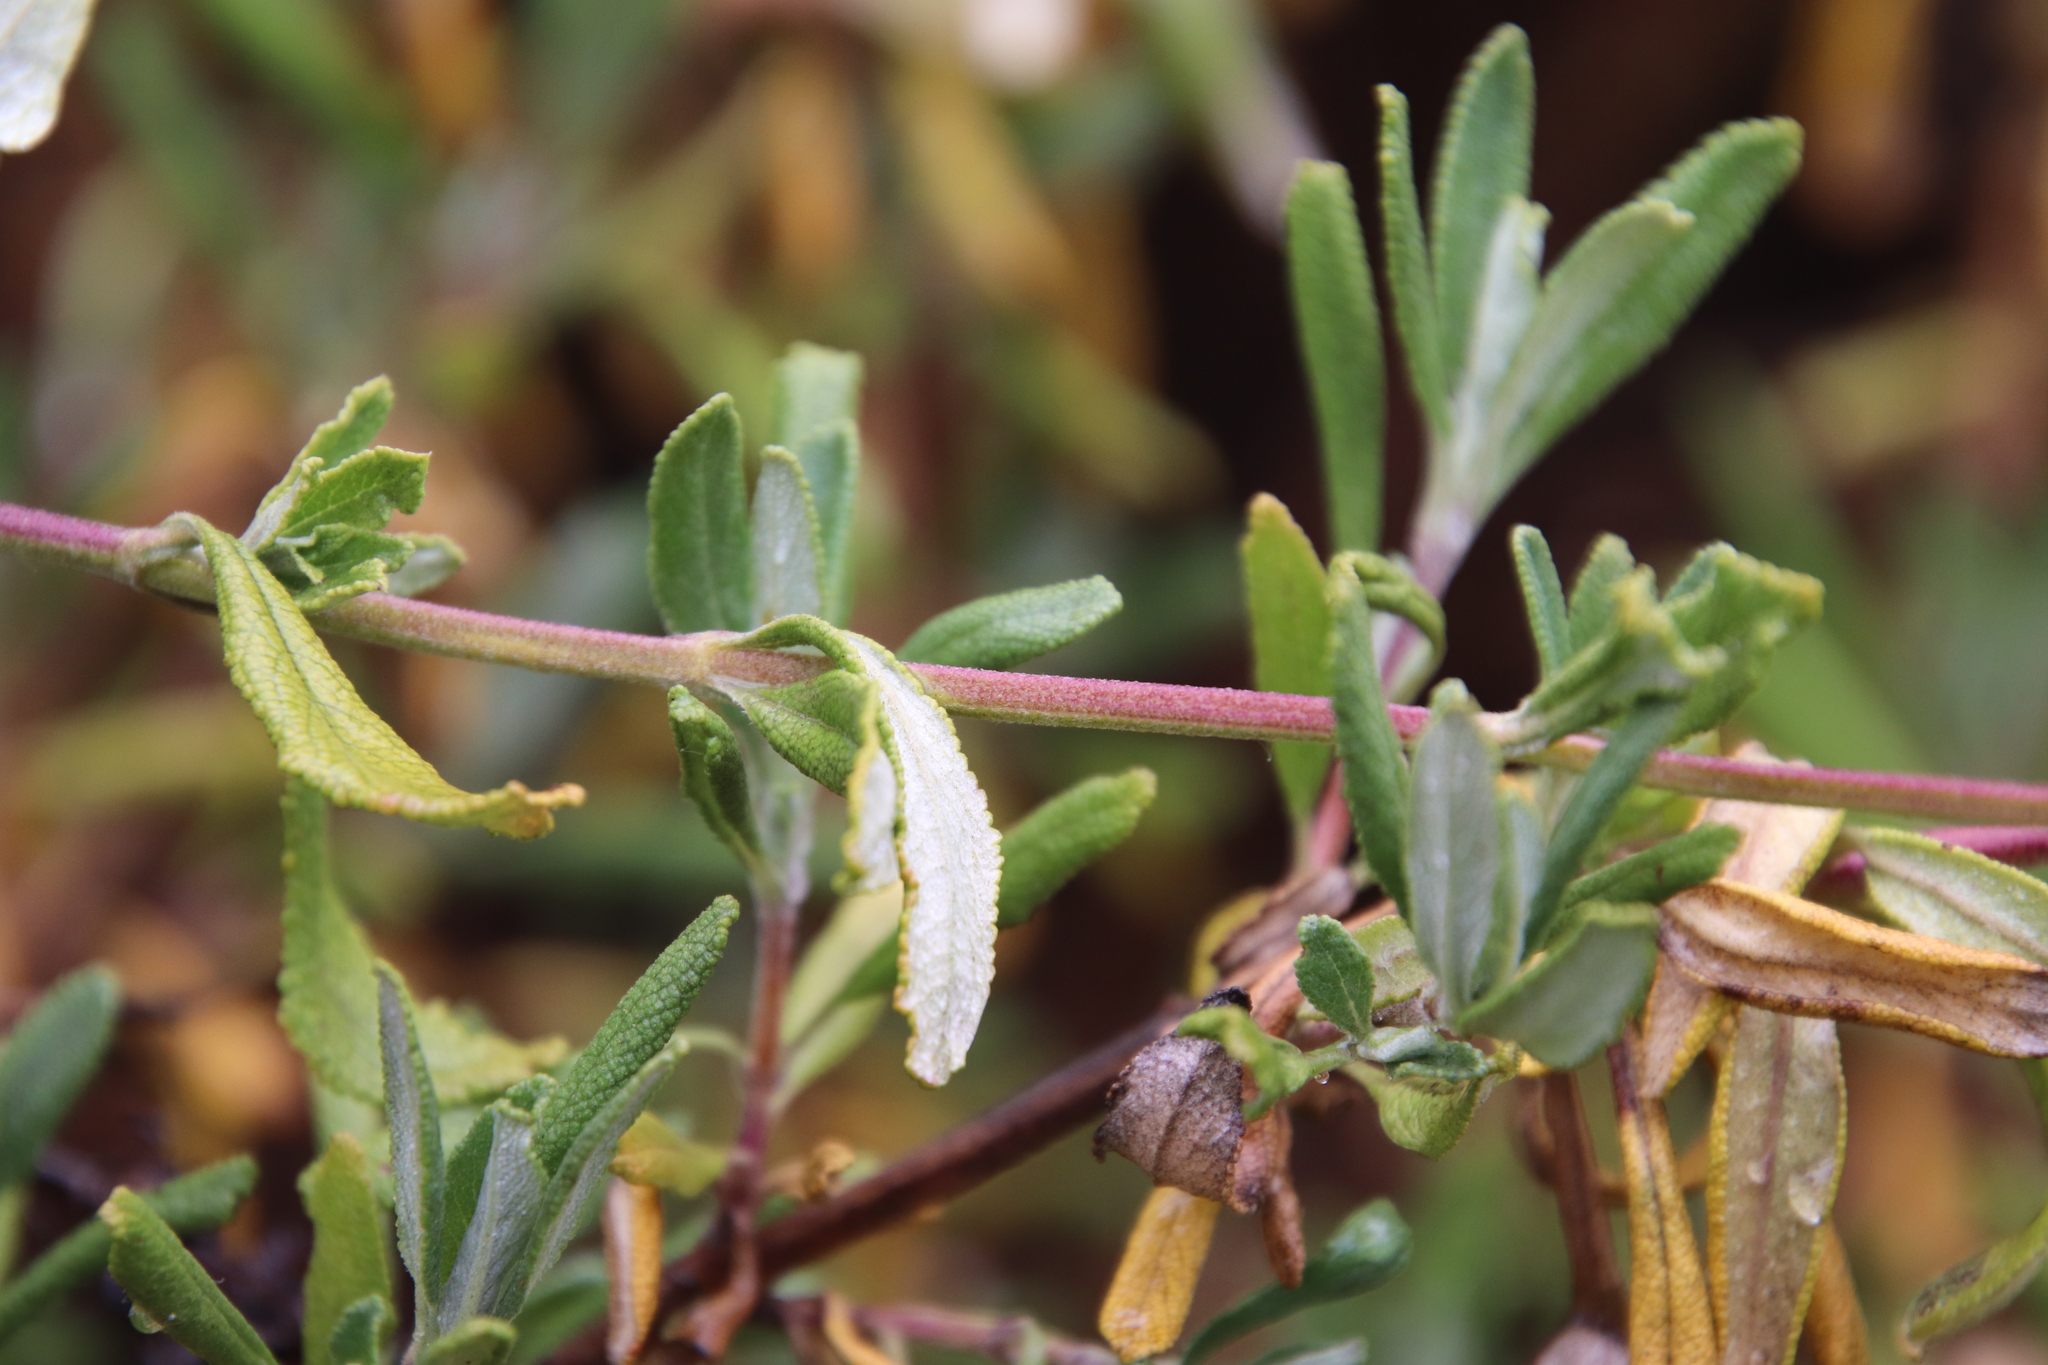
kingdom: Plantae
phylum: Tracheophyta
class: Magnoliopsida
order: Lamiales
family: Lamiaceae
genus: Salvia
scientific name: Salvia mellifera
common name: Black sage
